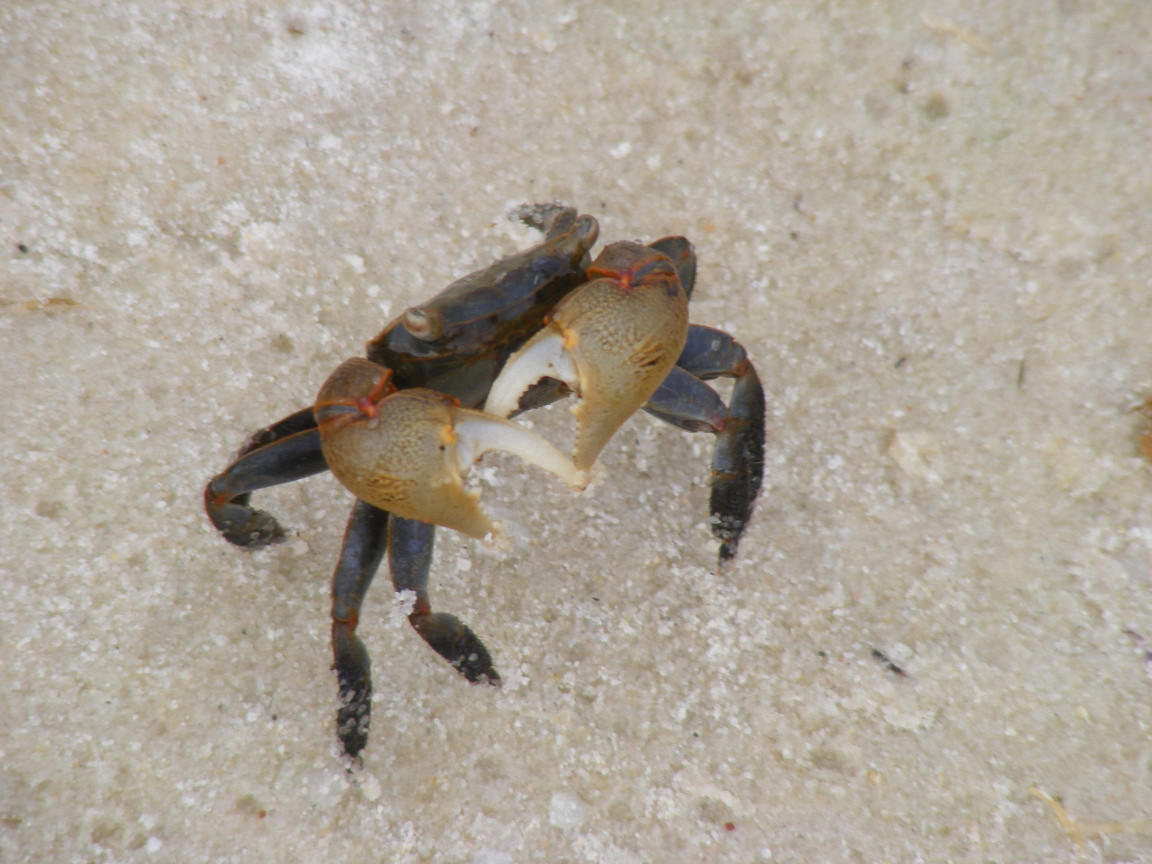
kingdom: Animalia
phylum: Arthropoda
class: Malacostraca
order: Decapoda
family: Sesarmidae
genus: Cristarma
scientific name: Cristarma eulimene
